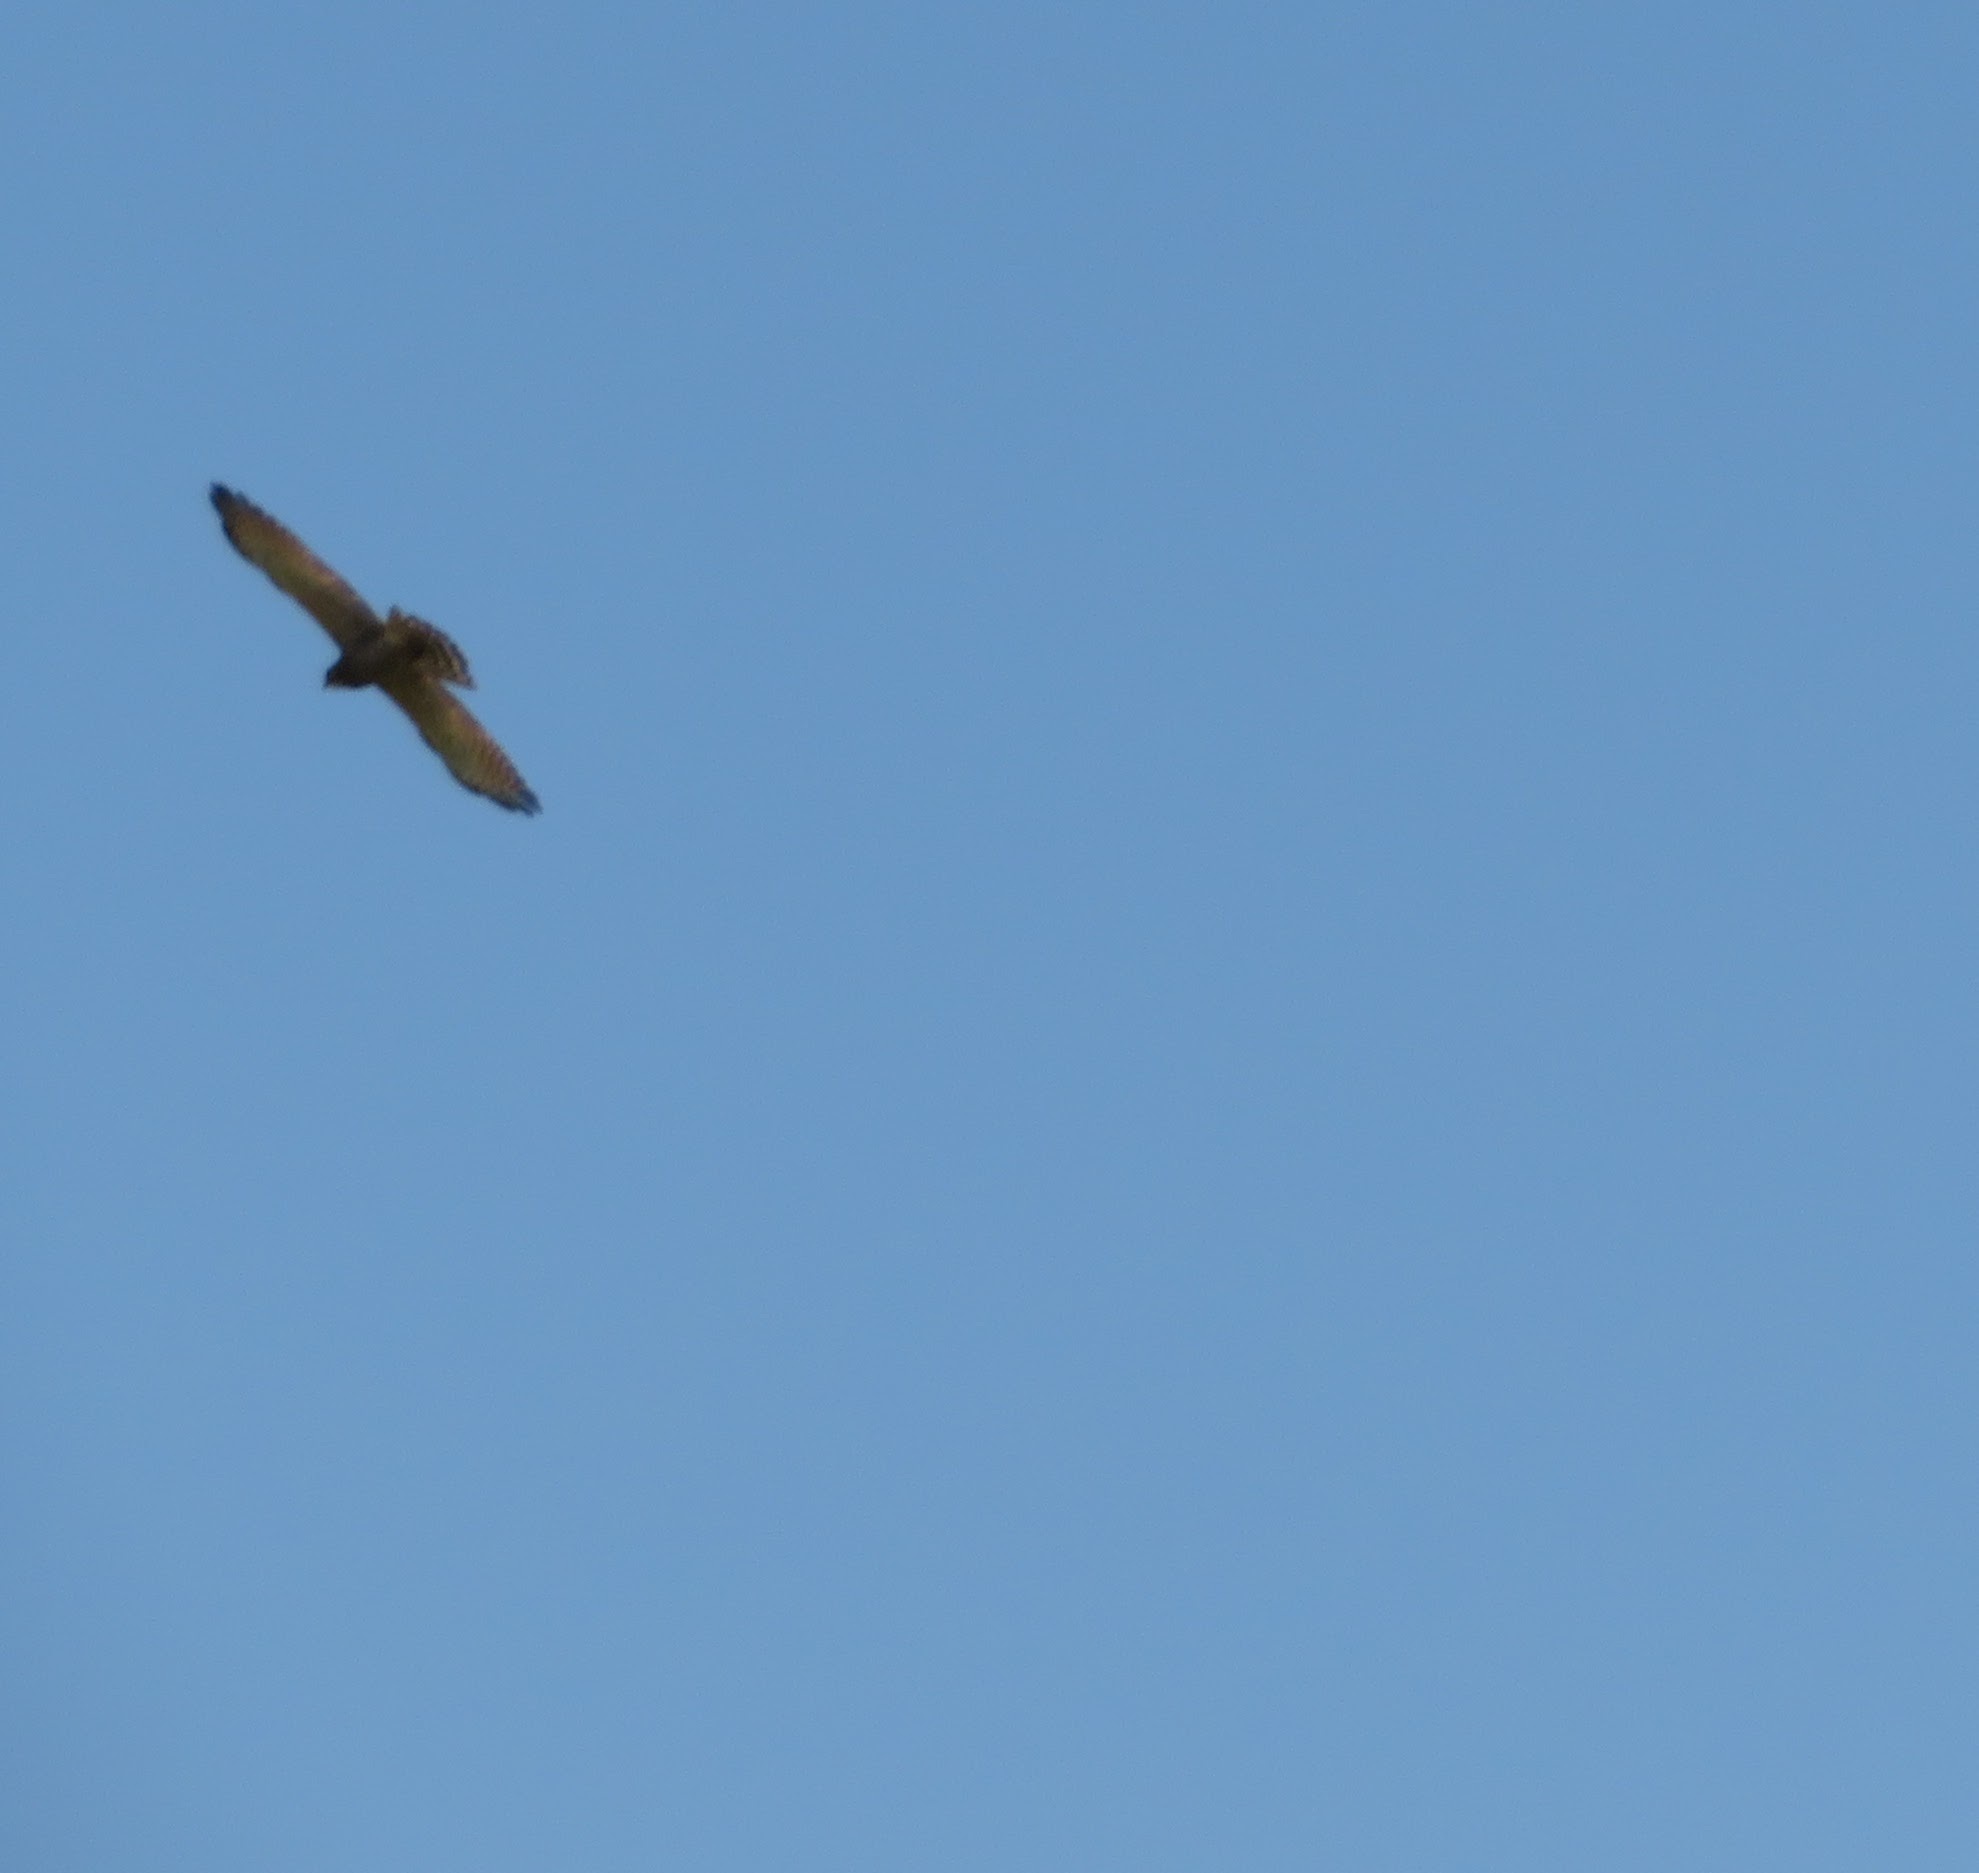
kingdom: Animalia
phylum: Chordata
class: Aves
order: Accipitriformes
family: Accipitridae
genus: Butastur
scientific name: Butastur indicus
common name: Grey-faced buzzard
